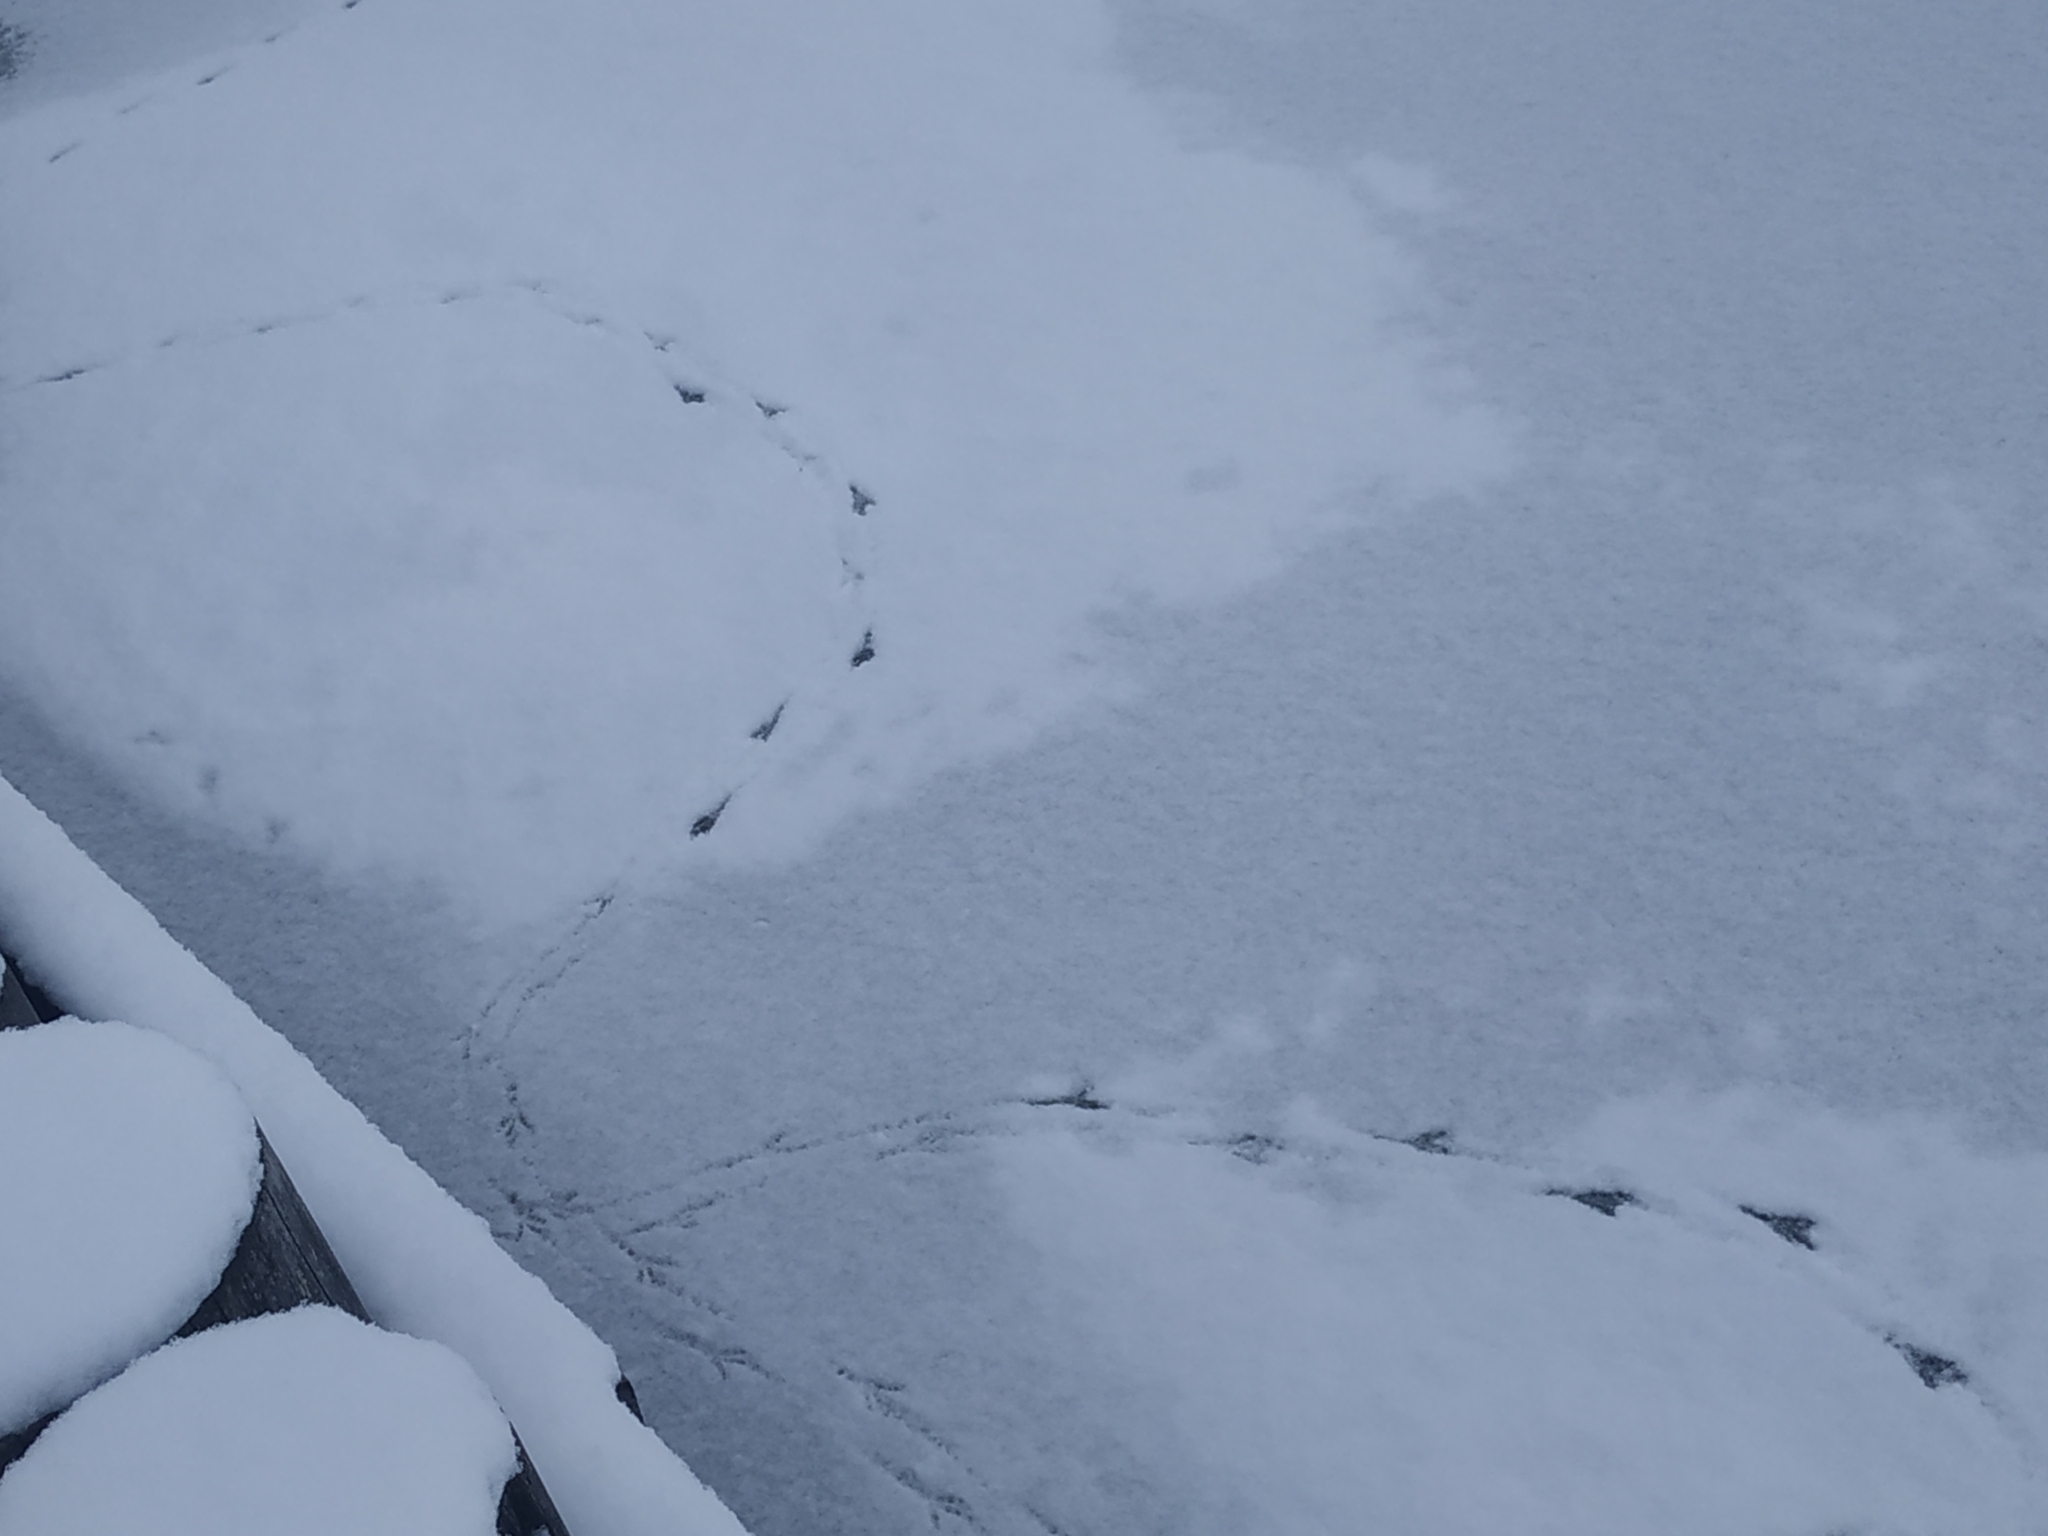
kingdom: Animalia
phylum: Chordata
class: Aves
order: Passeriformes
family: Corvidae
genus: Corvus
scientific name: Corvus cornix
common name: Hooded crow
